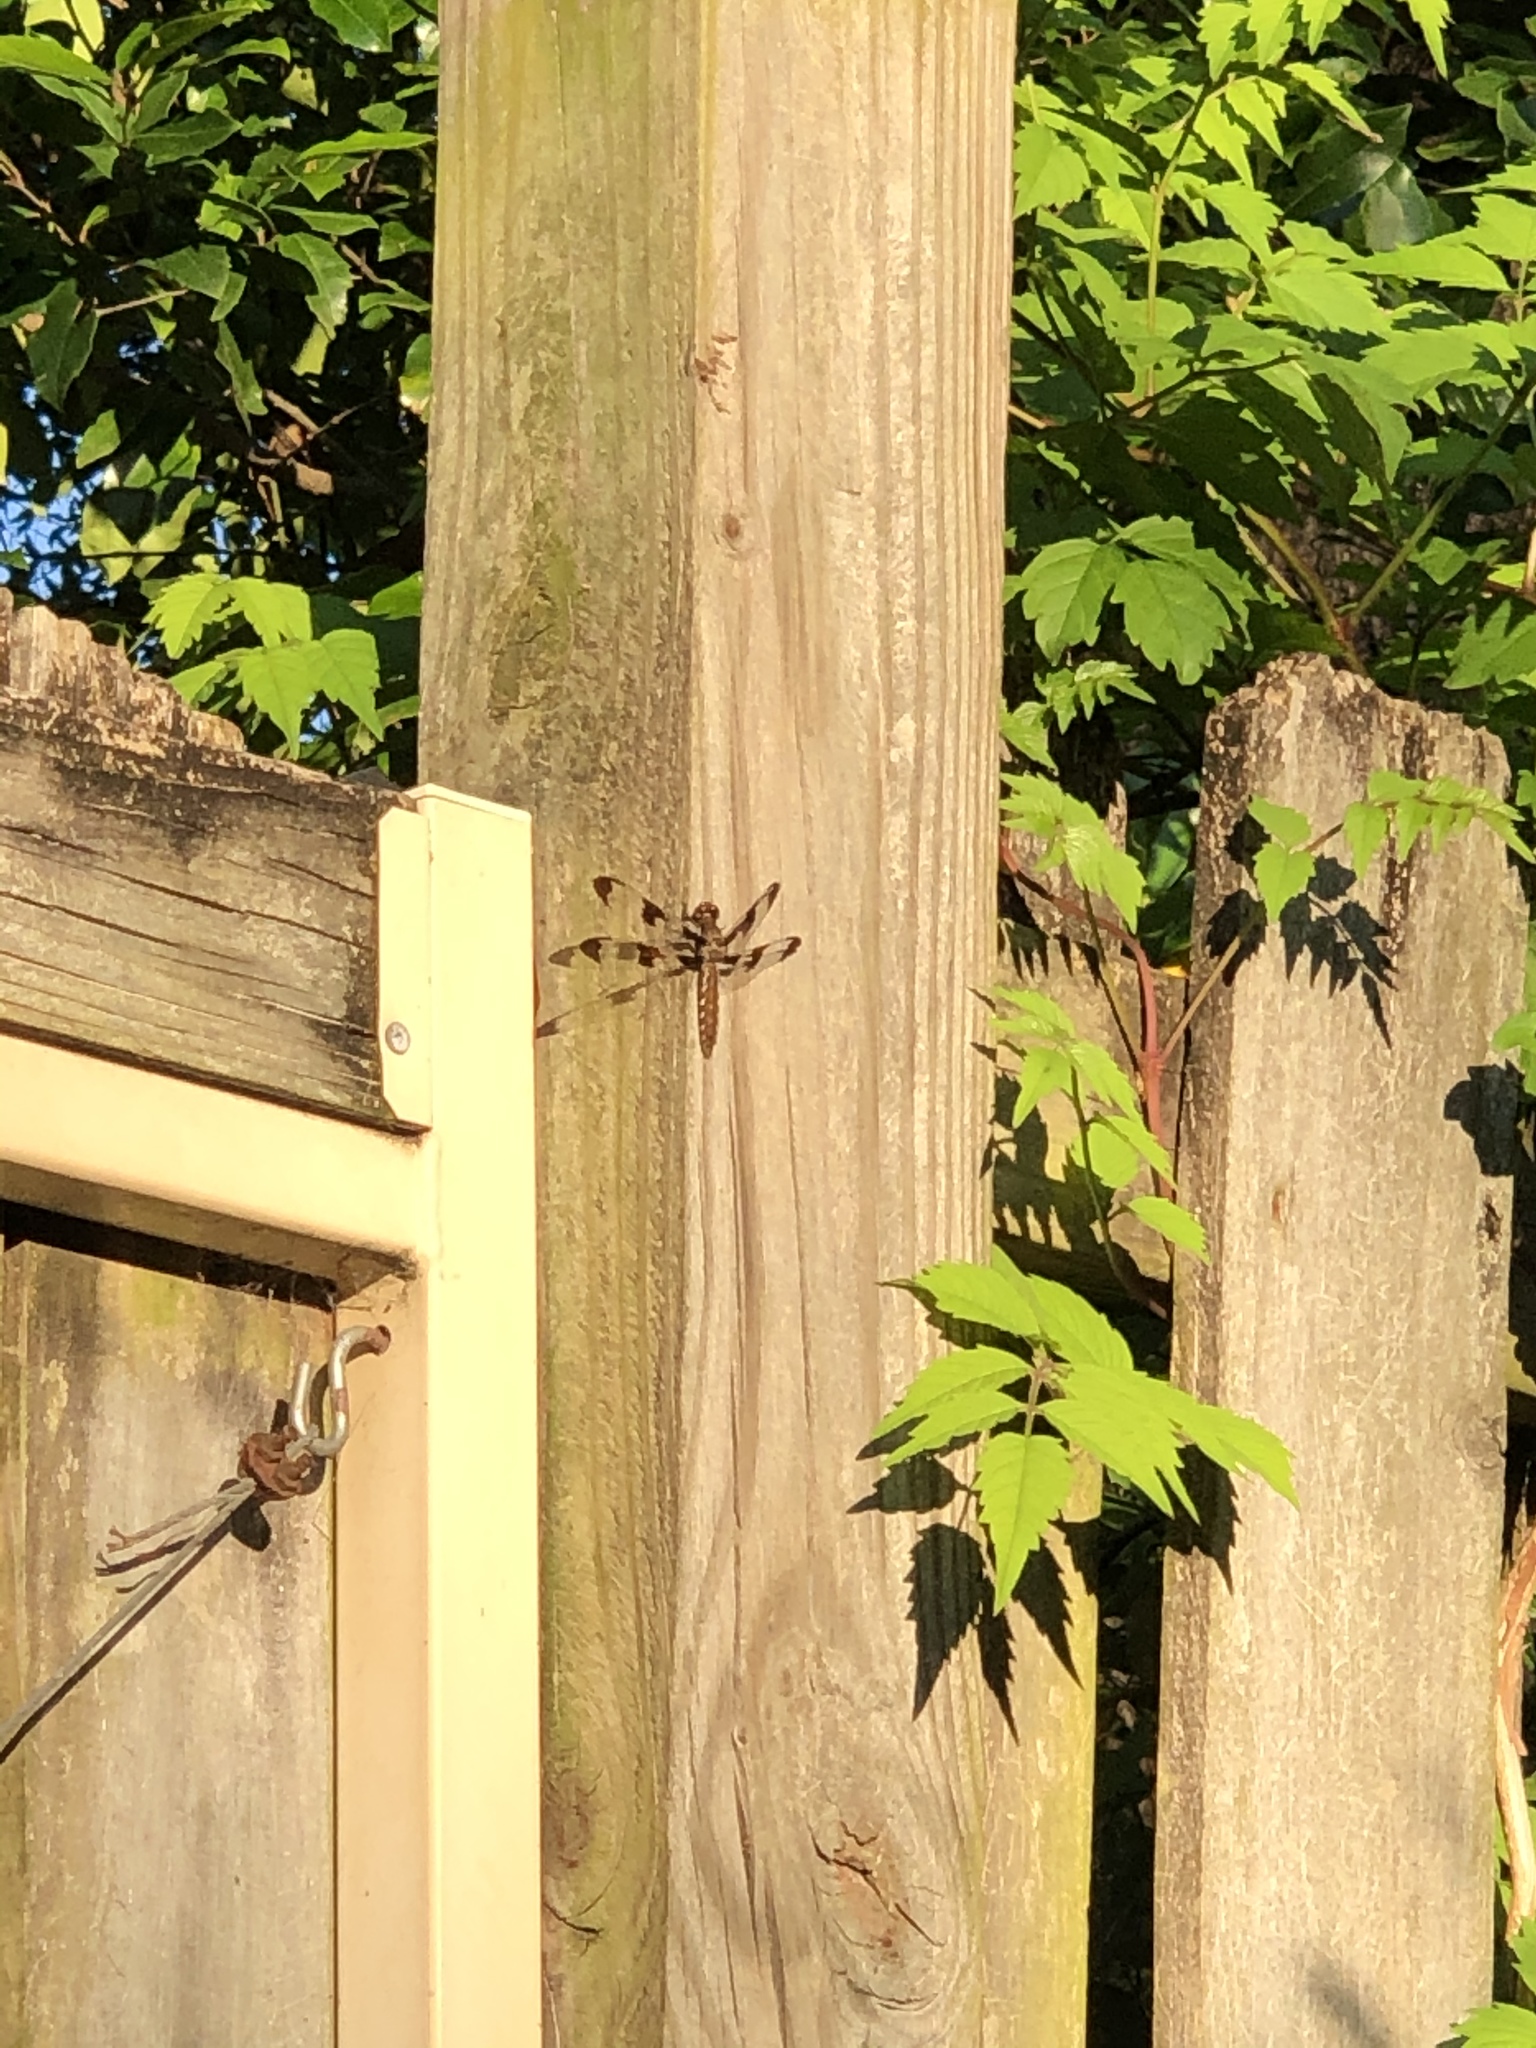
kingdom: Animalia
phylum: Arthropoda
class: Insecta
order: Odonata
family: Libellulidae
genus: Plathemis
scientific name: Plathemis lydia
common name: Common whitetail
